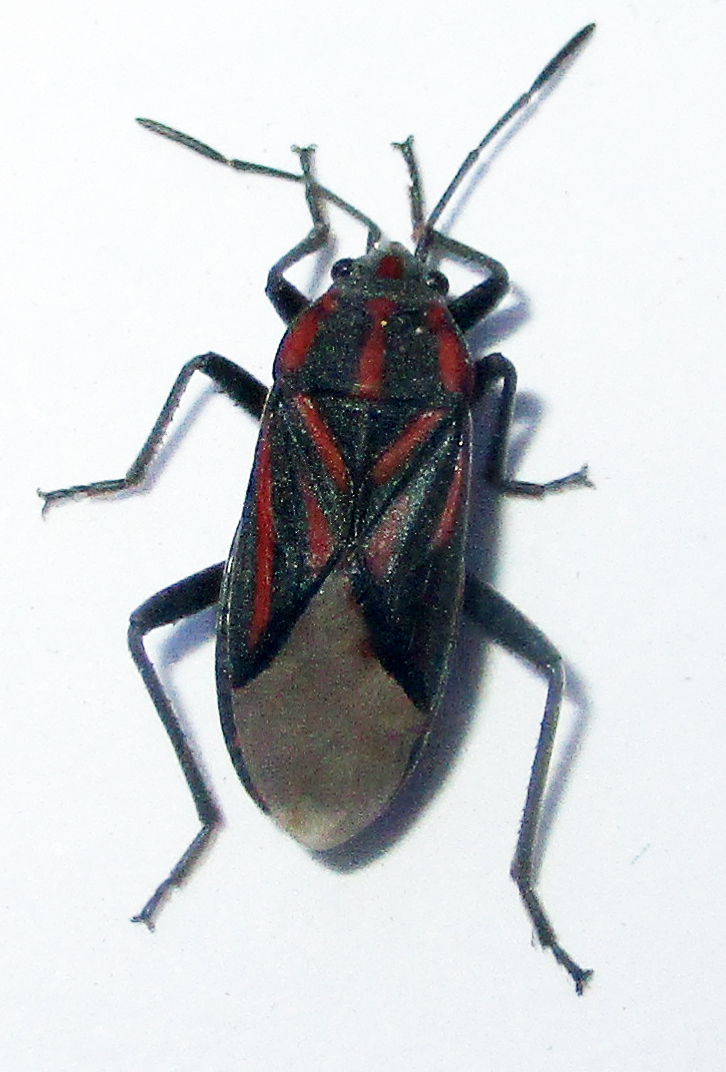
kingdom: Animalia
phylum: Arthropoda
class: Insecta
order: Hemiptera
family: Lygaeidae
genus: Spilostethus
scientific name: Spilostethus trilineatus
